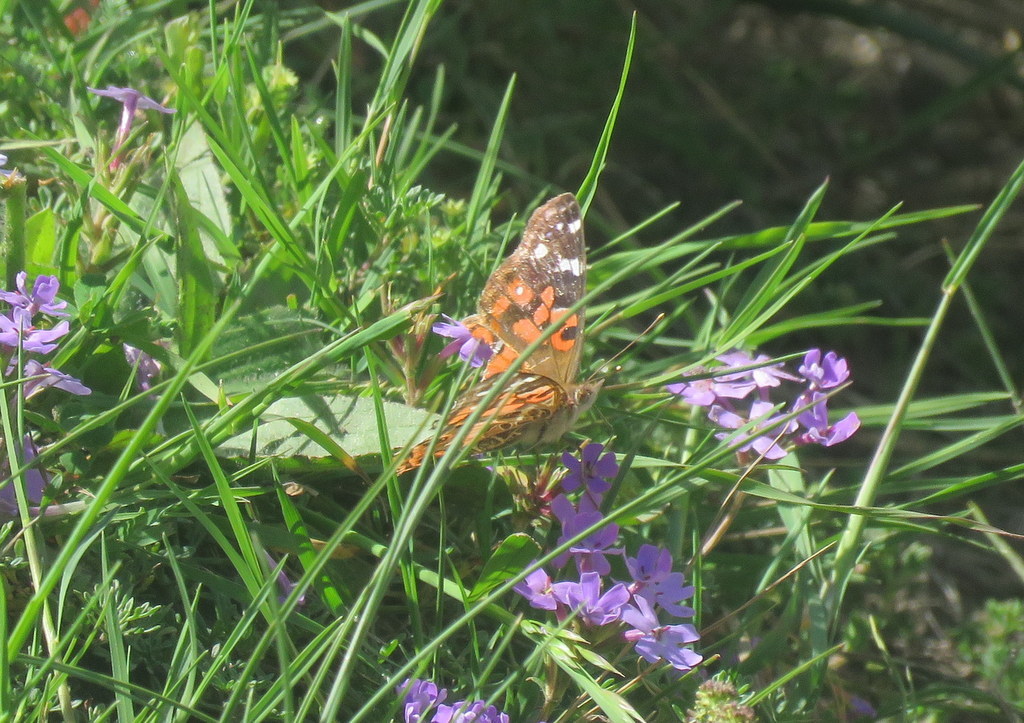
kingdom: Animalia
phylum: Arthropoda
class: Insecta
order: Lepidoptera
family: Nymphalidae
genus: Vanessa
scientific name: Vanessa braziliensis
